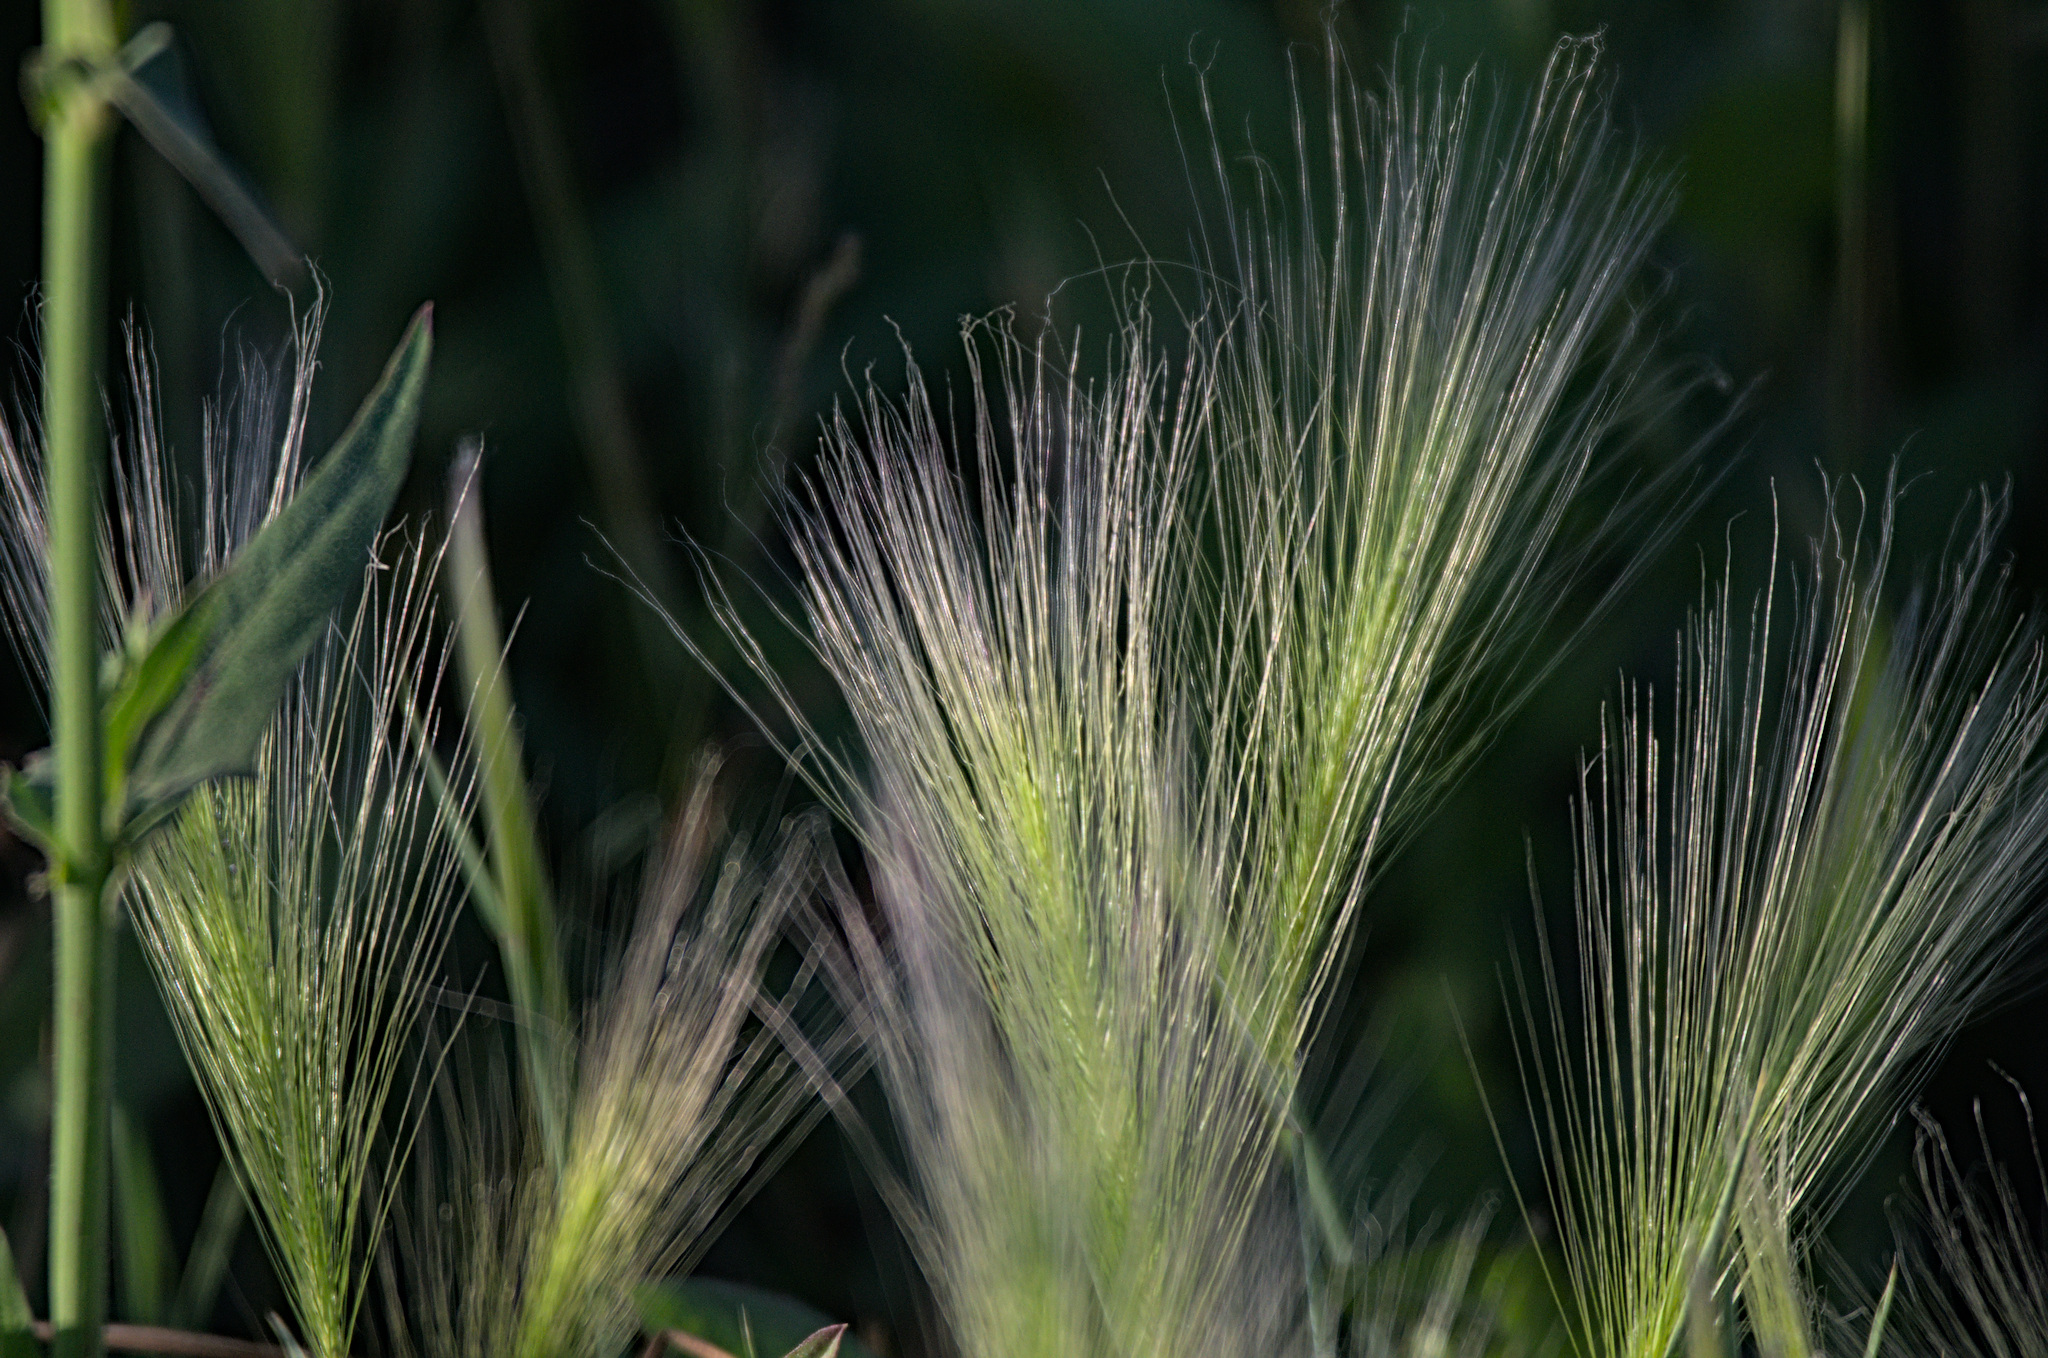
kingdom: Plantae
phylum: Tracheophyta
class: Liliopsida
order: Poales
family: Poaceae
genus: Hordeum
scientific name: Hordeum jubatum
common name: Foxtail barley
